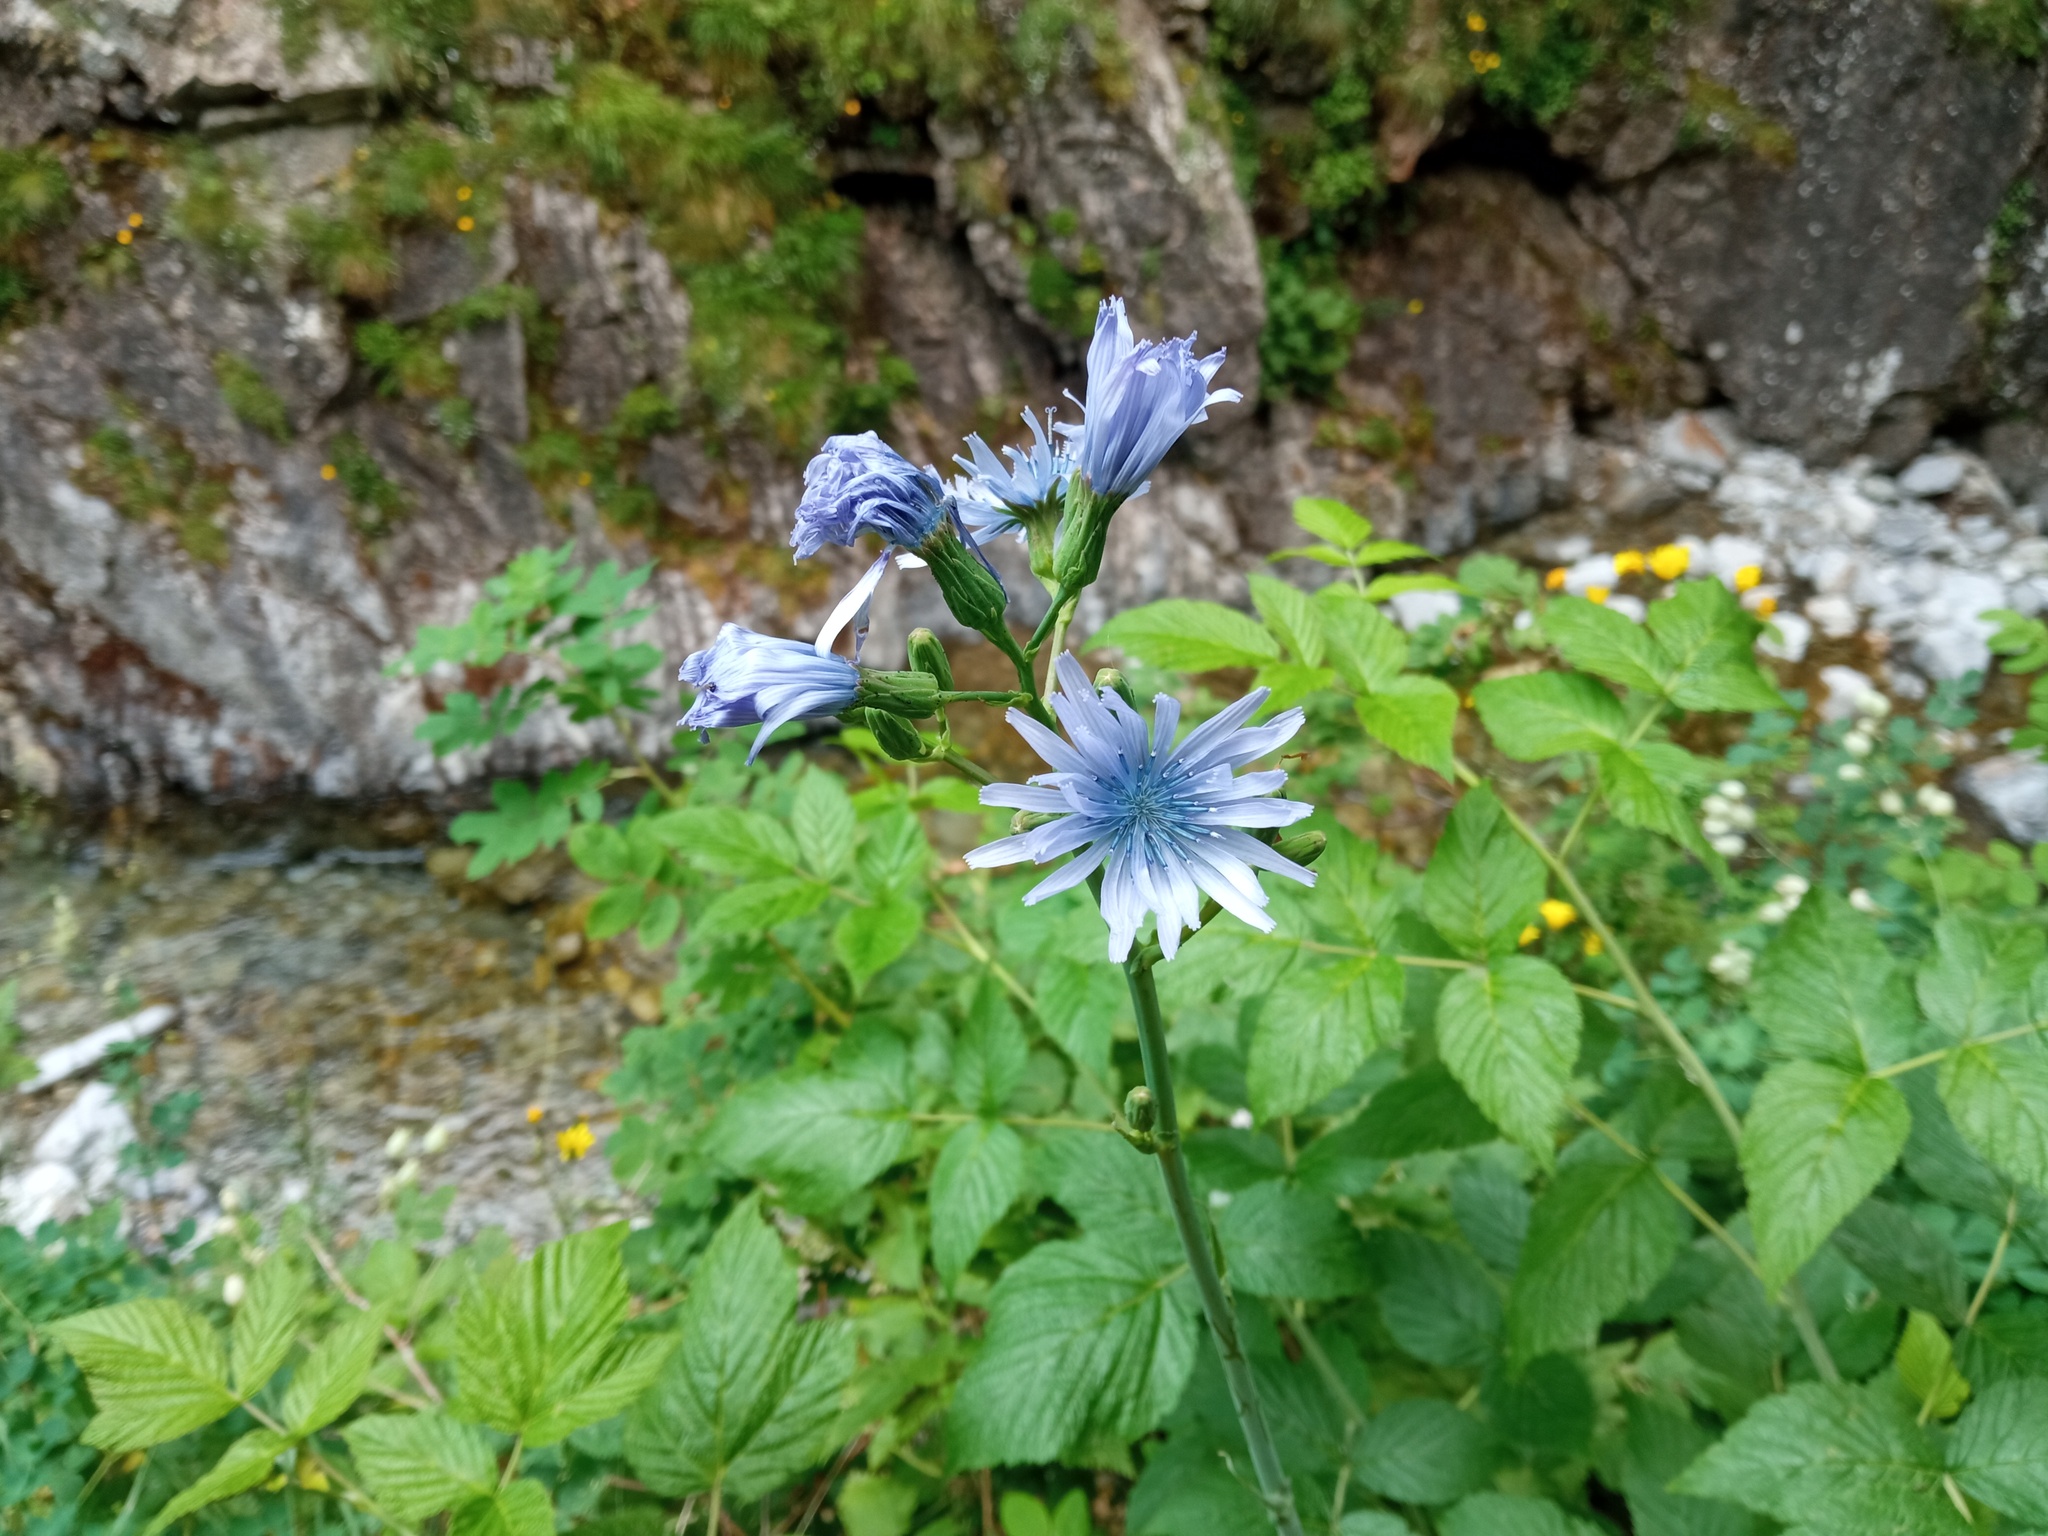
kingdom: Plantae
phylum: Tracheophyta
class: Magnoliopsida
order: Asterales
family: Asteraceae
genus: Lactuca
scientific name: Lactuca plumieri
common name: Hairless blue-sow-thistle
